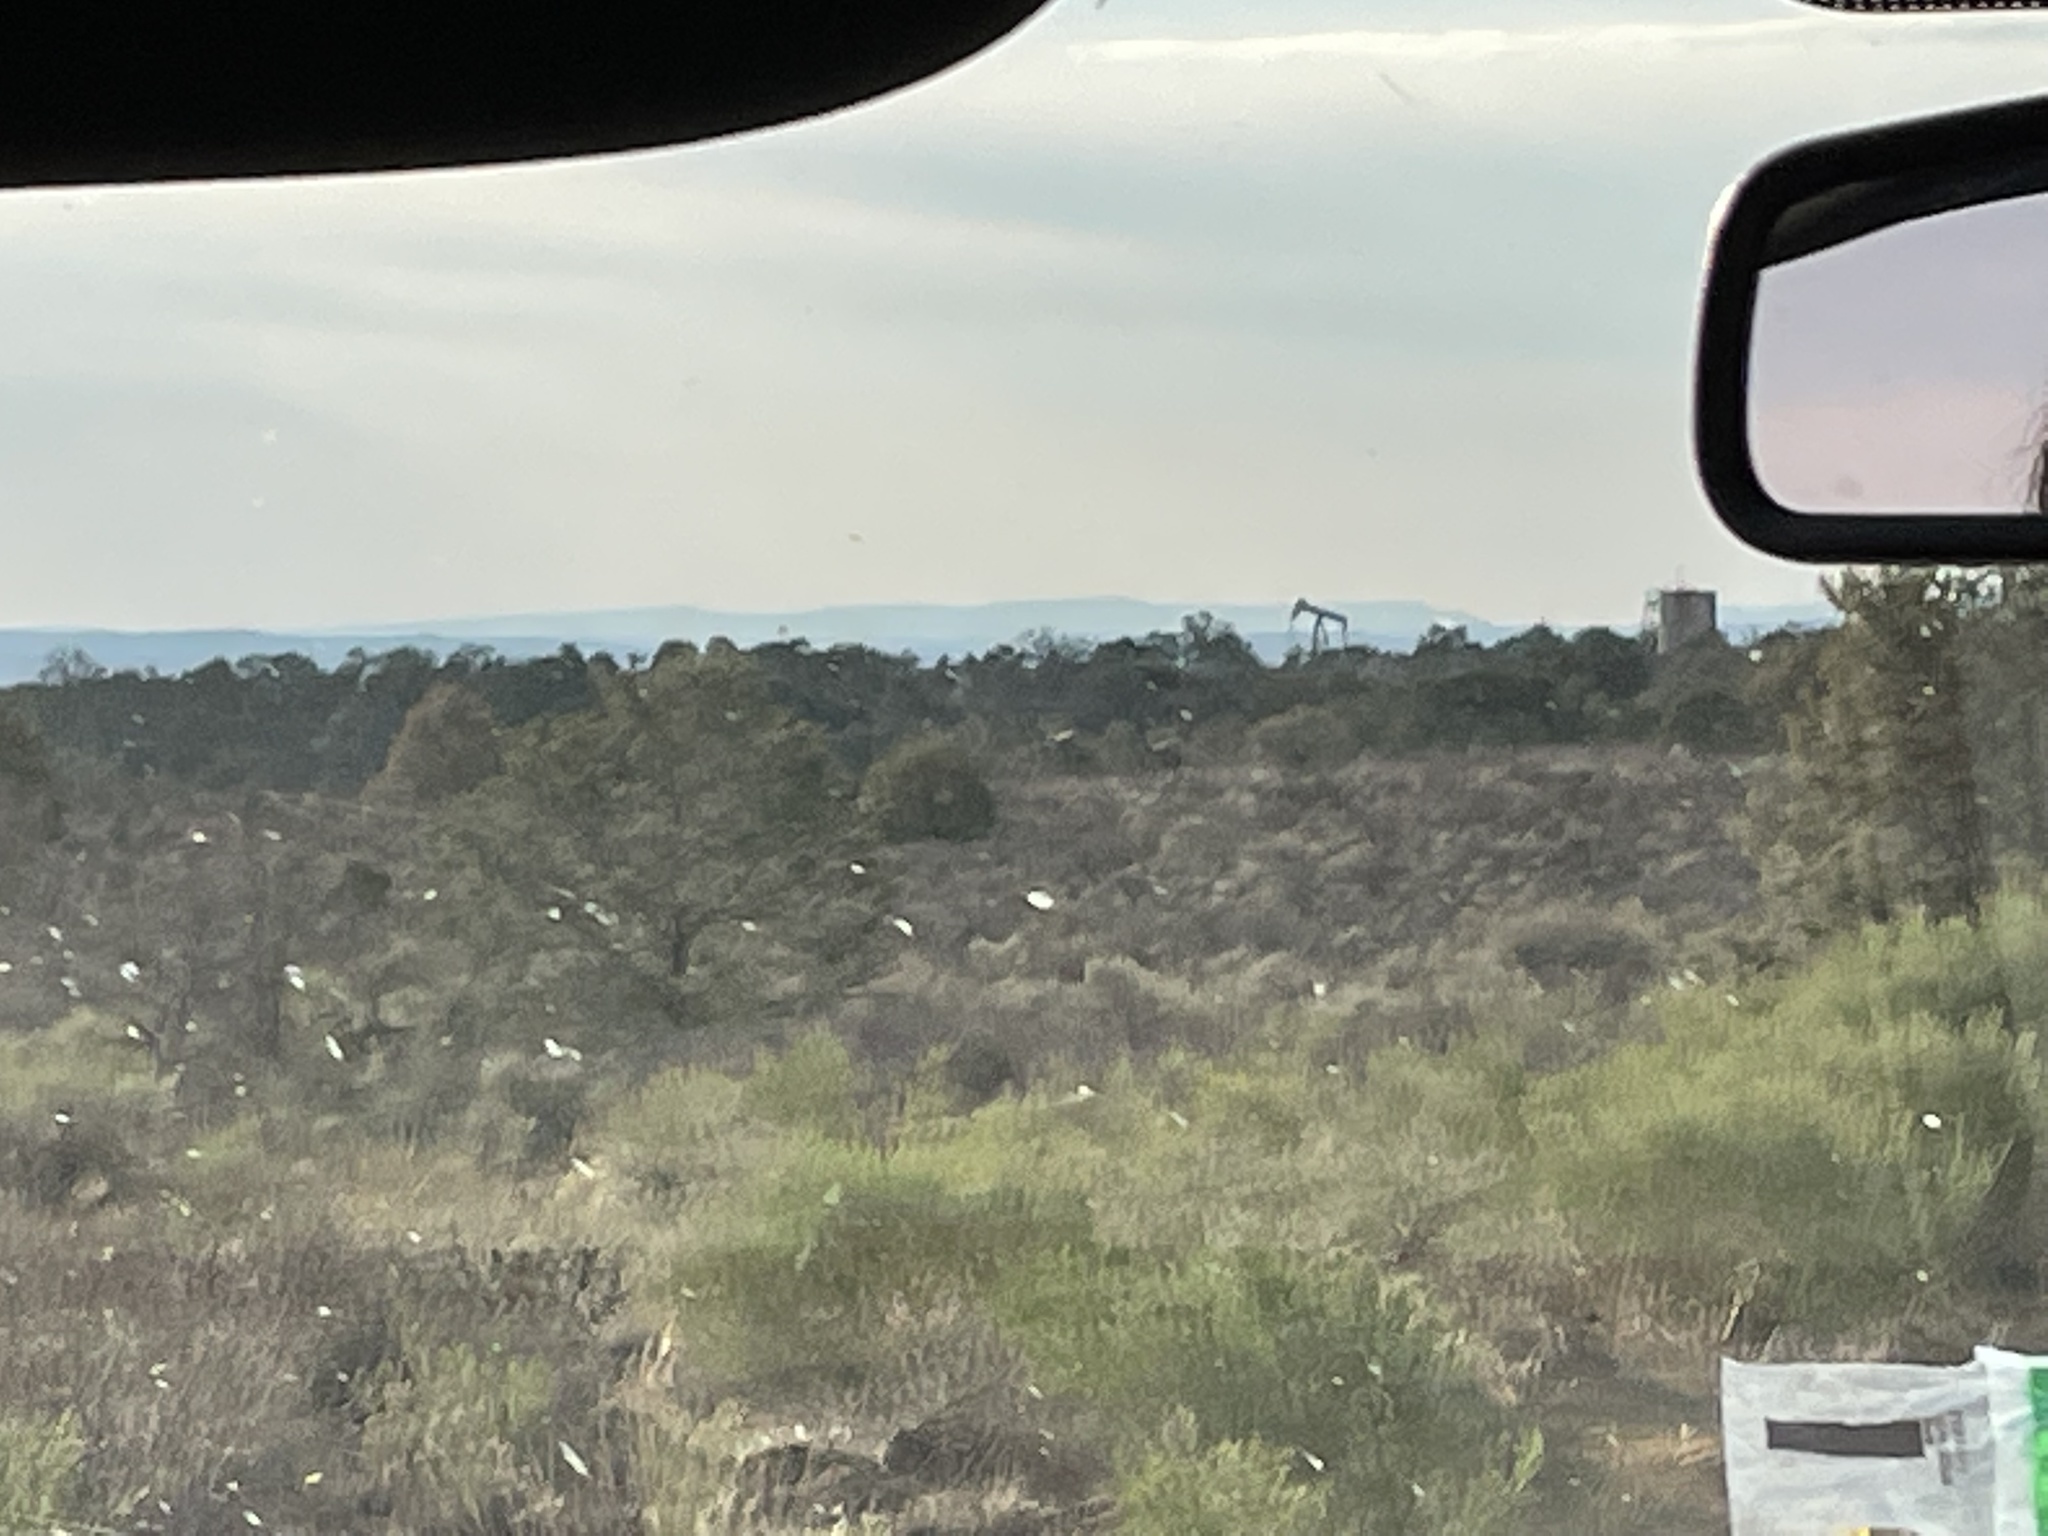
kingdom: Animalia
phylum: Chordata
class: Mammalia
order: Artiodactyla
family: Cervidae
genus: Cervus
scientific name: Cervus elaphus
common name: Red deer
